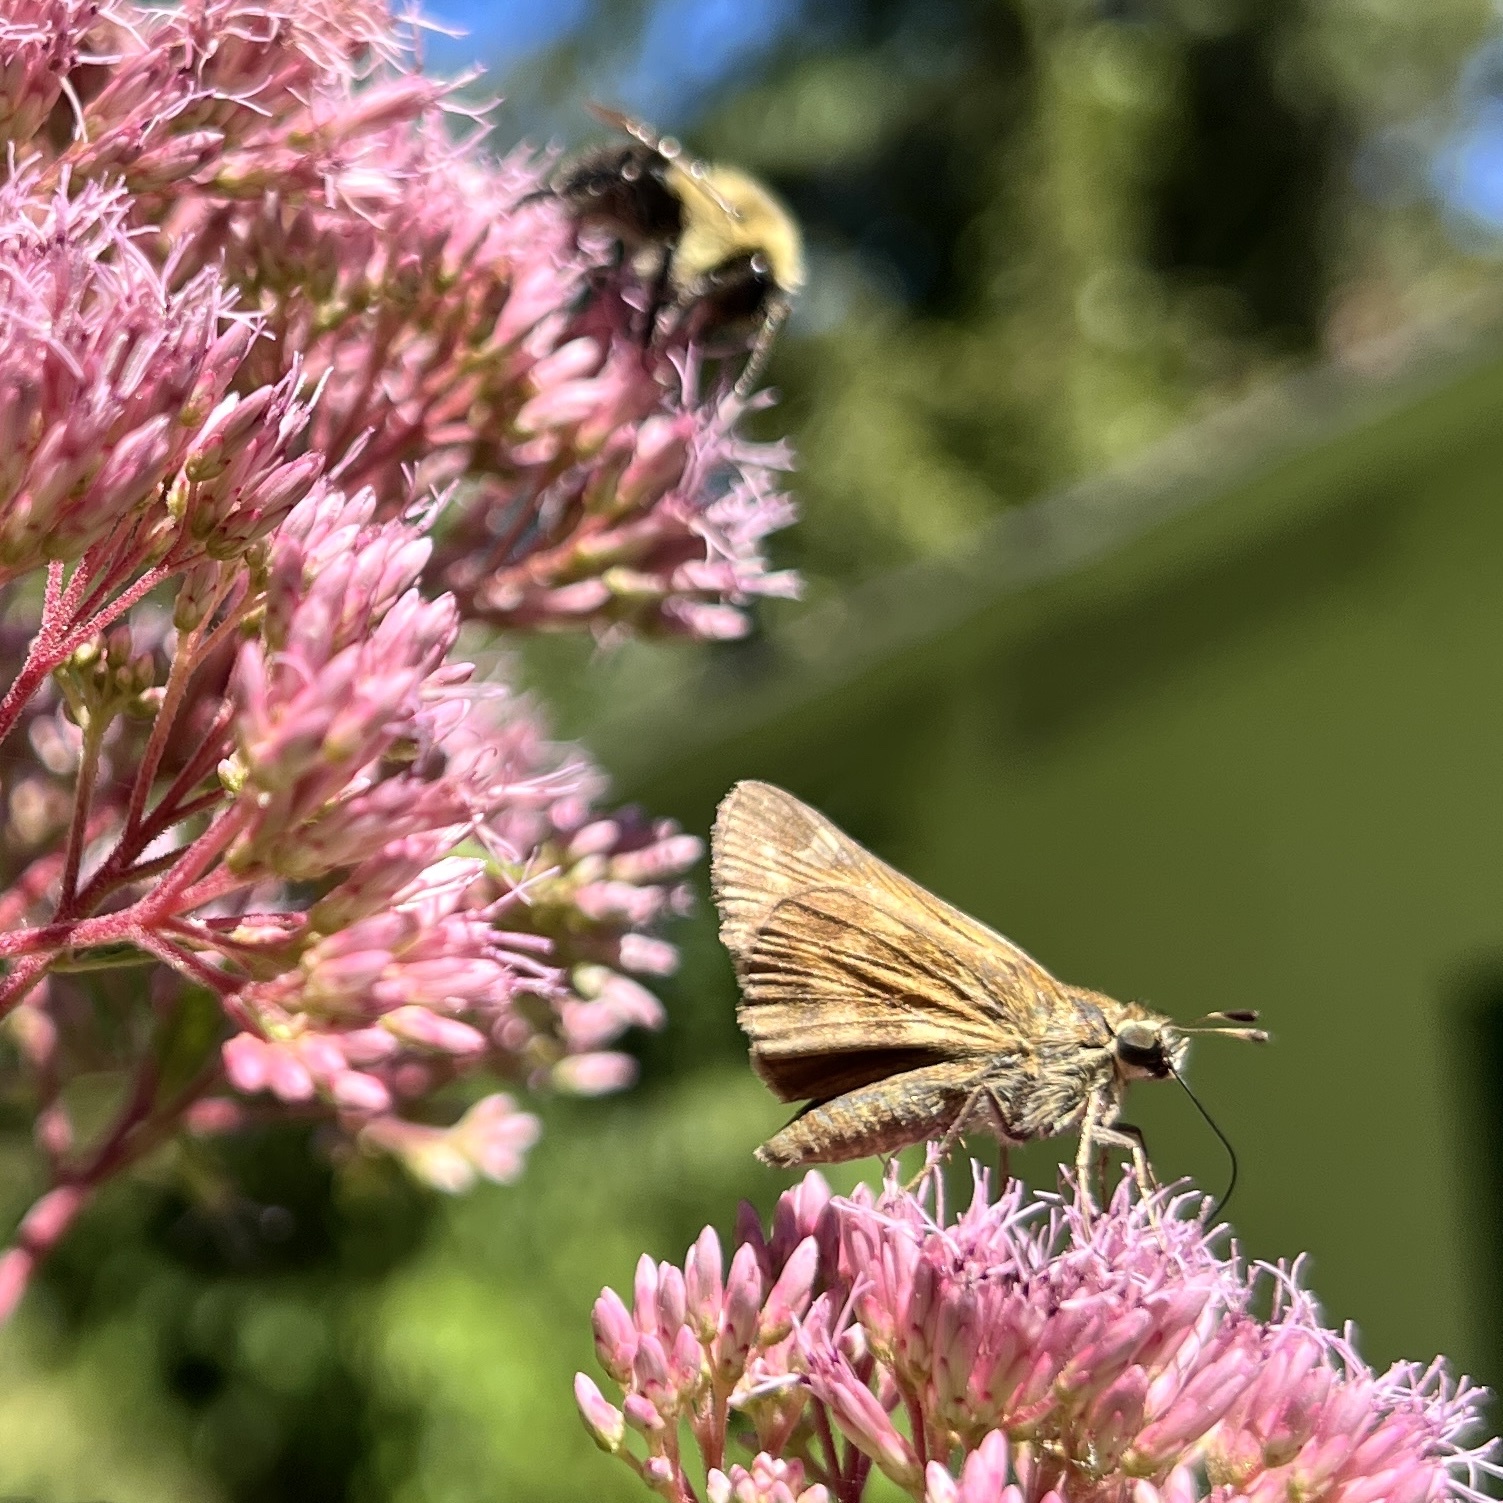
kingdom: Animalia
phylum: Arthropoda
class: Insecta
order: Lepidoptera
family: Hesperiidae
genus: Atalopedes
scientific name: Atalopedes
